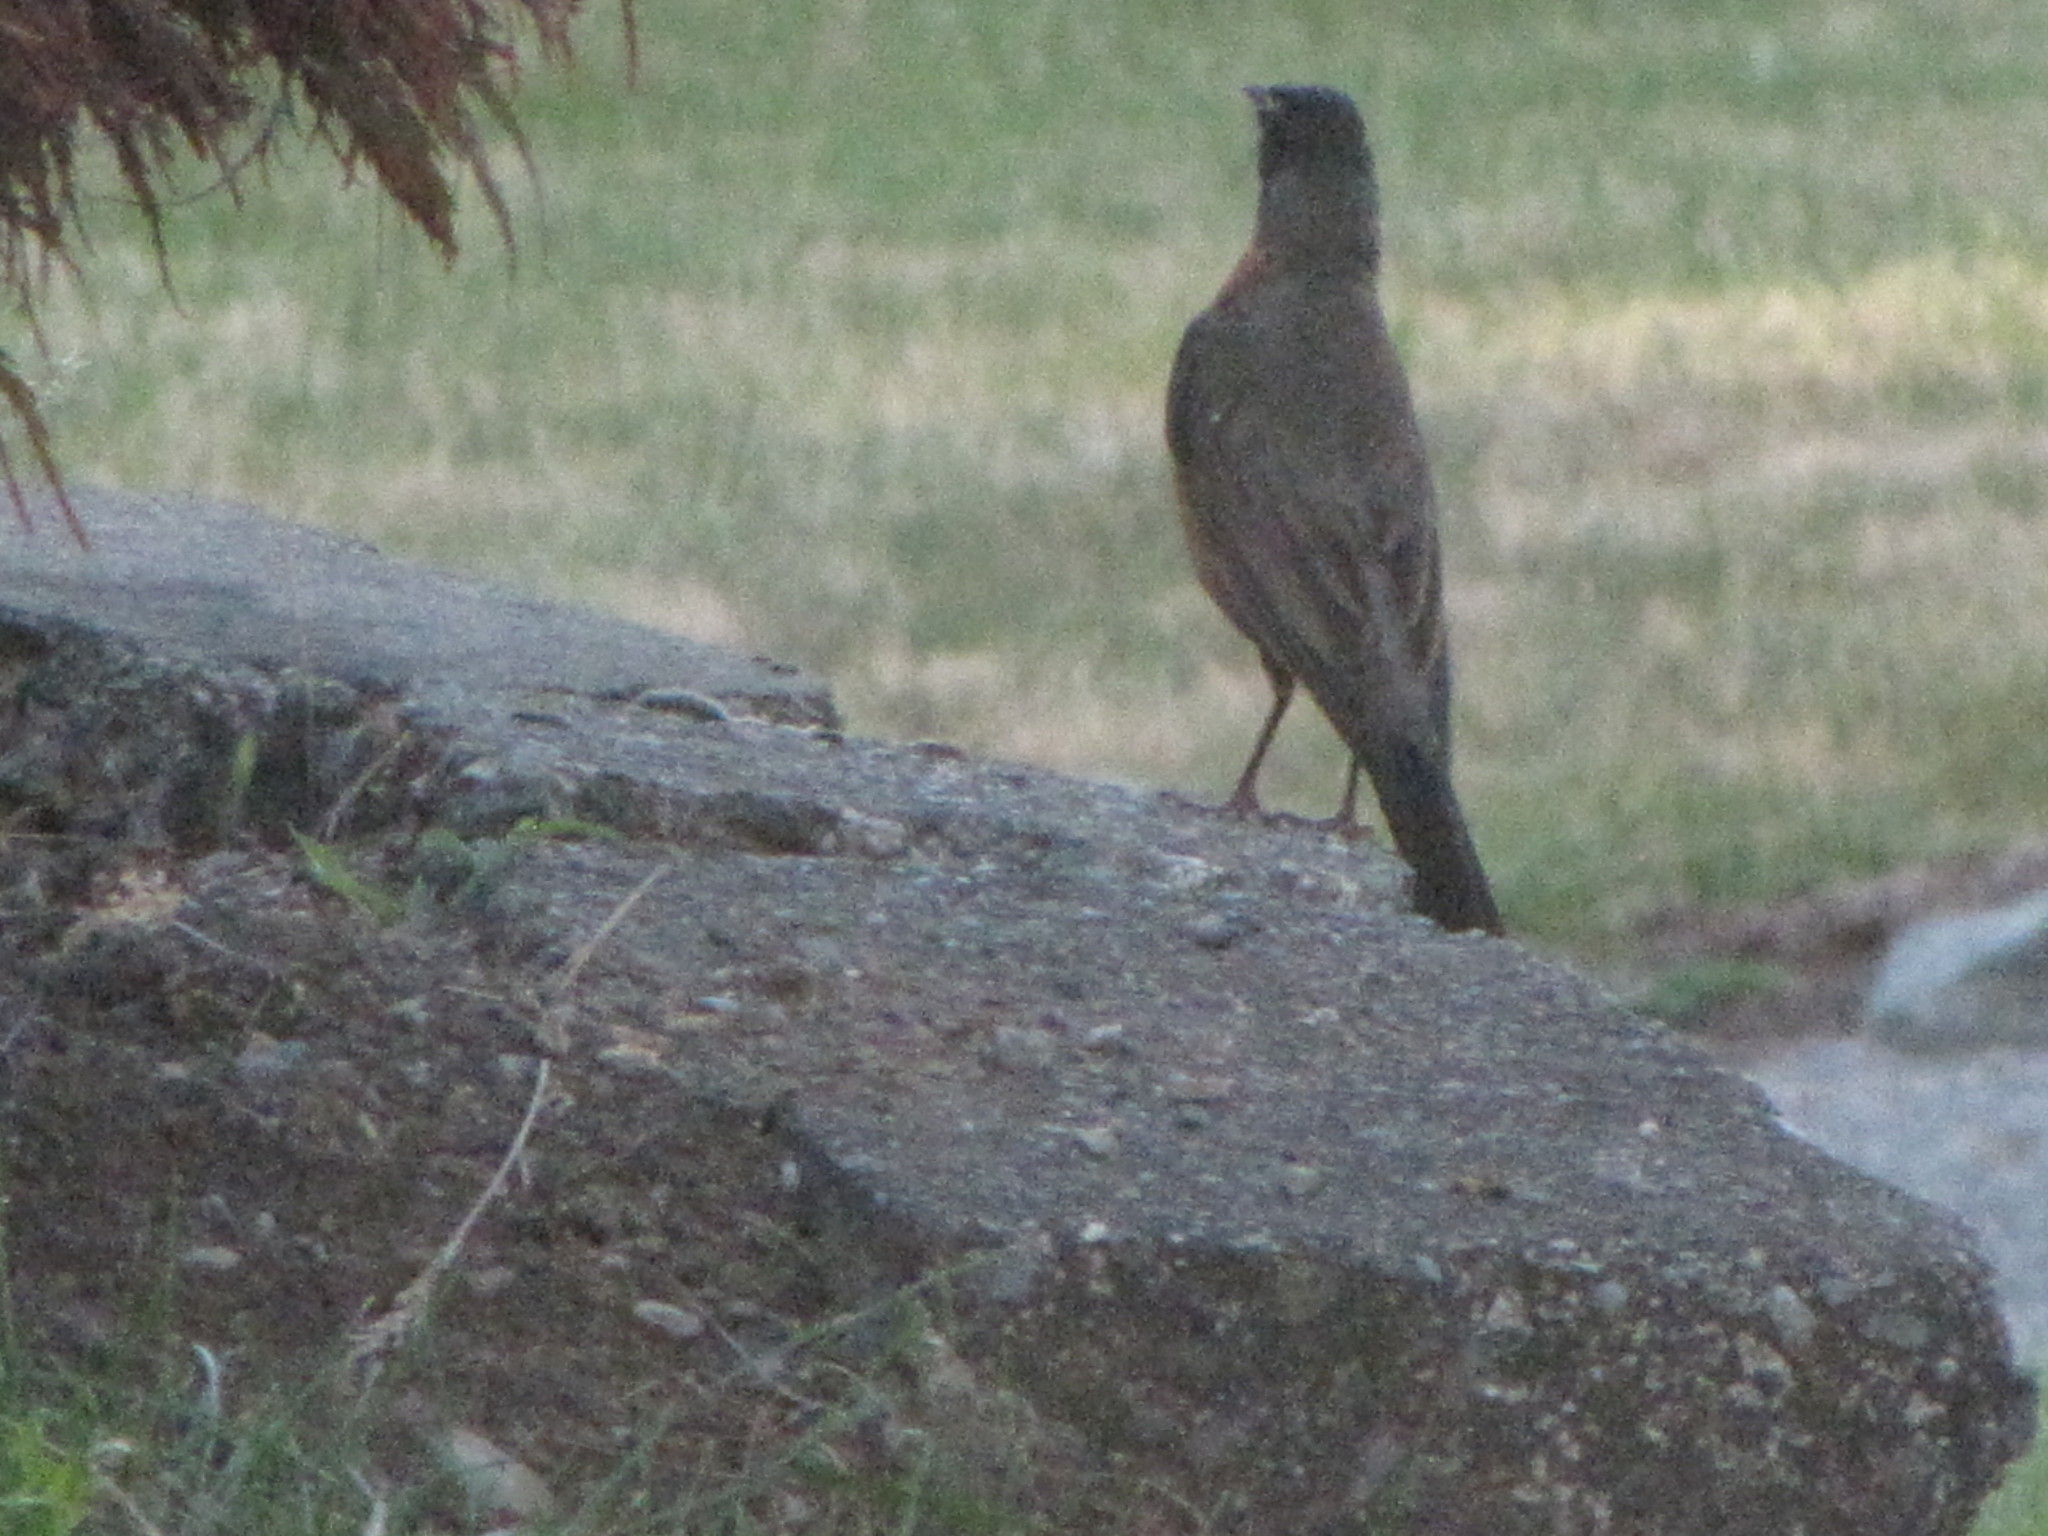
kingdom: Animalia
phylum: Chordata
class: Aves
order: Passeriformes
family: Turdidae
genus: Turdus
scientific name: Turdus migratorius
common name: American robin
